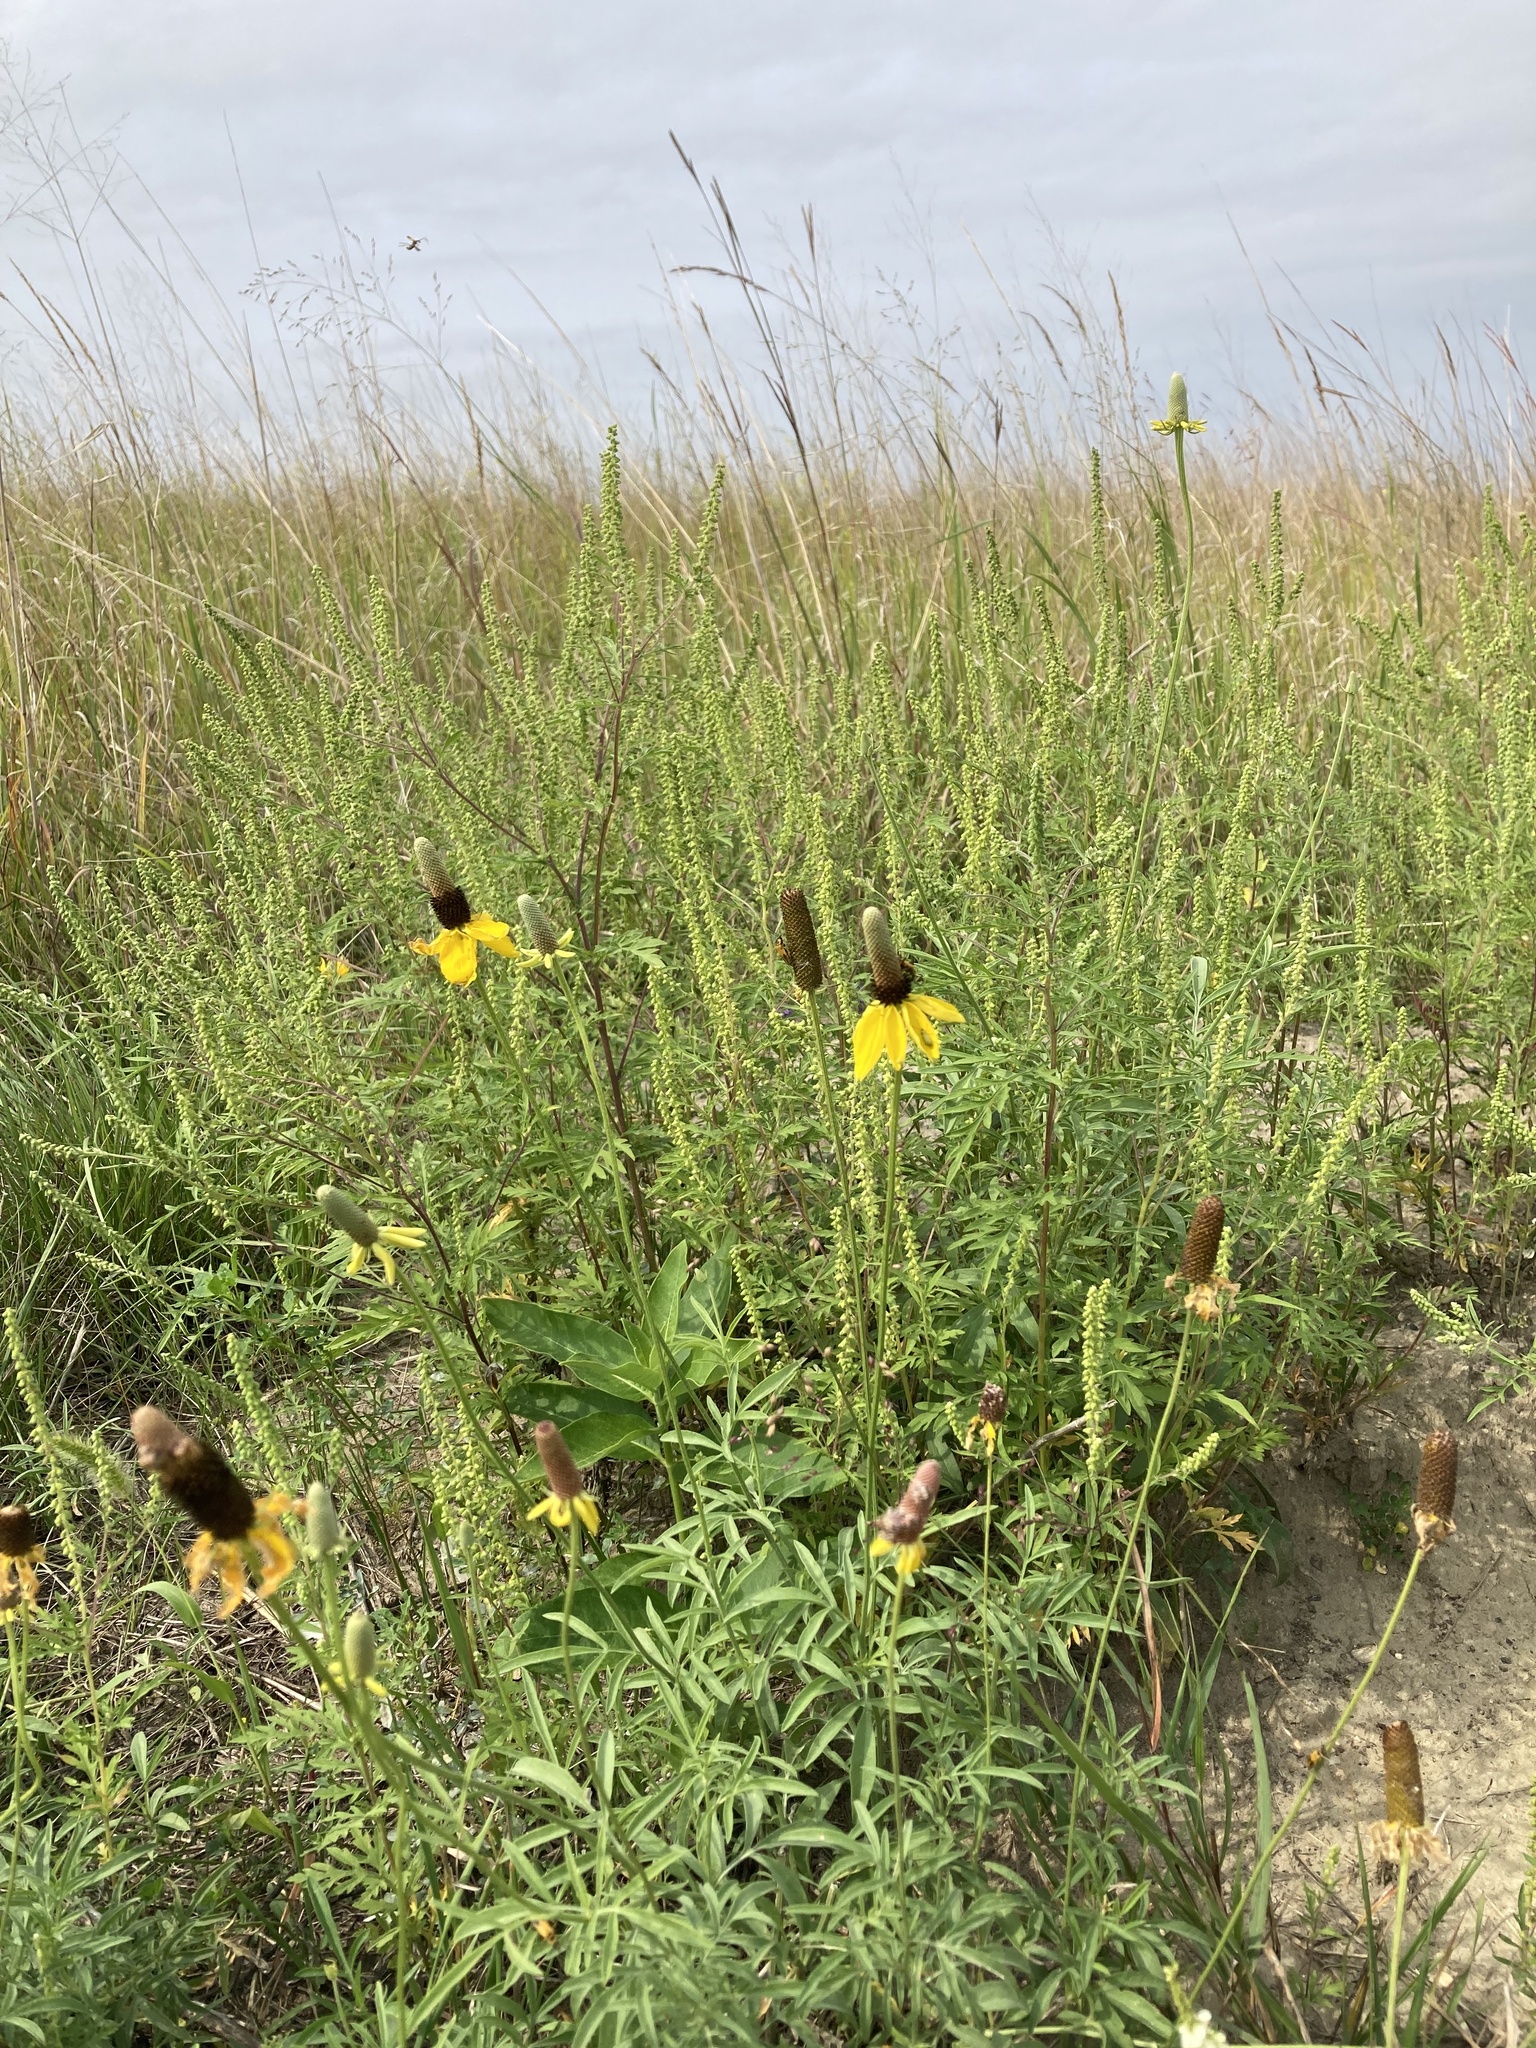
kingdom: Plantae
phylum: Tracheophyta
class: Magnoliopsida
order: Asterales
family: Asteraceae
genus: Ratibida
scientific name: Ratibida columnifera
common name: Prairie coneflower
